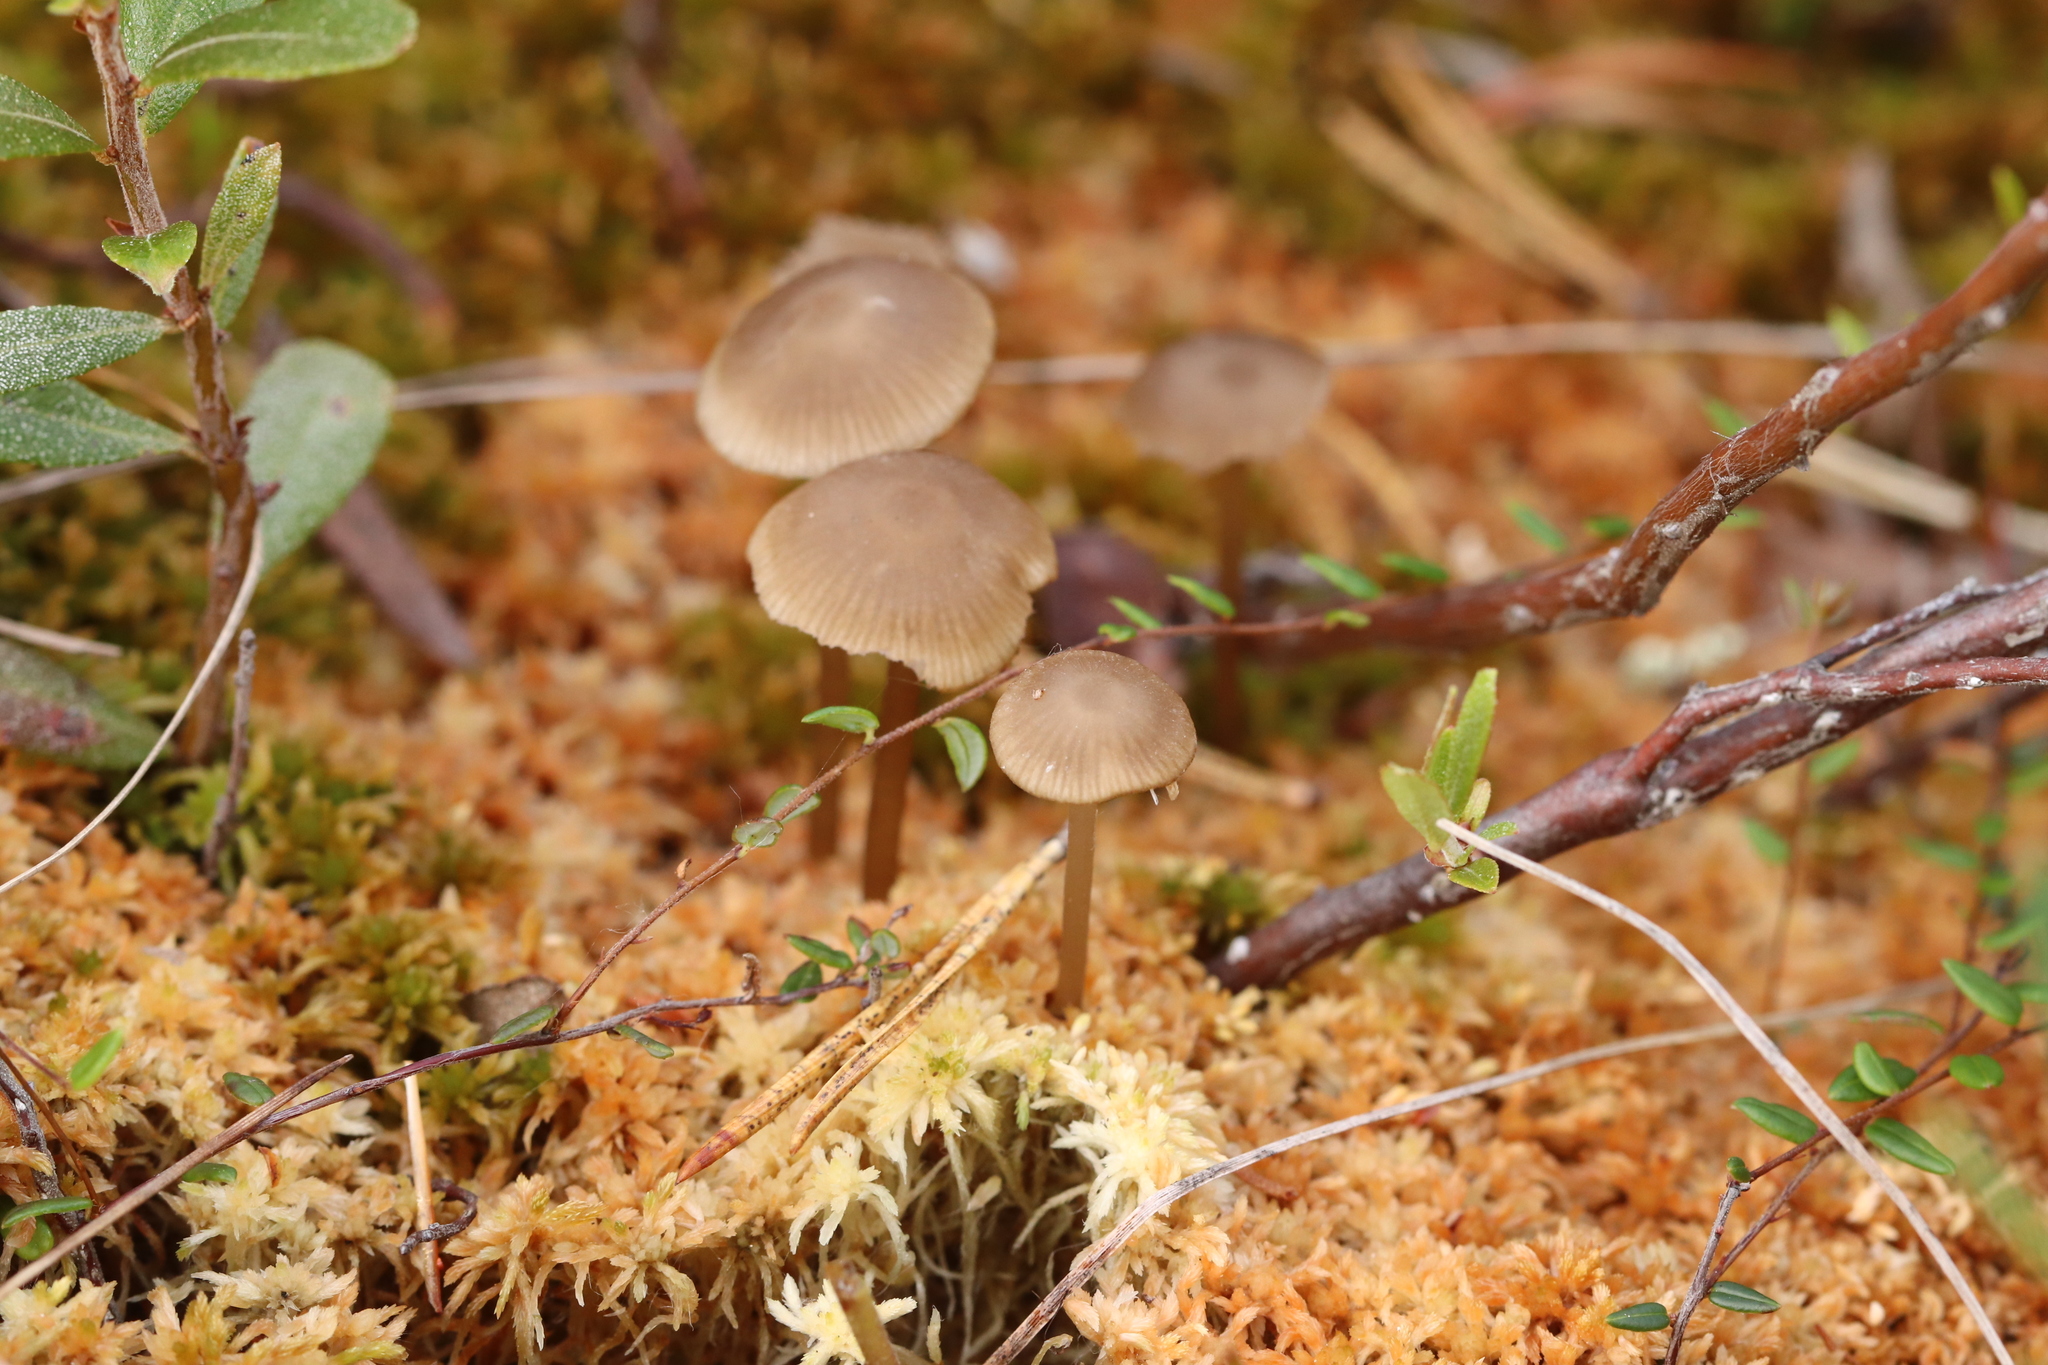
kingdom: Fungi
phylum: Basidiomycota
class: Agaricomycetes
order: Agaricales
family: Lyophyllaceae
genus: Sphagnurus
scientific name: Sphagnurus paluster
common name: Sphagnum greyling
